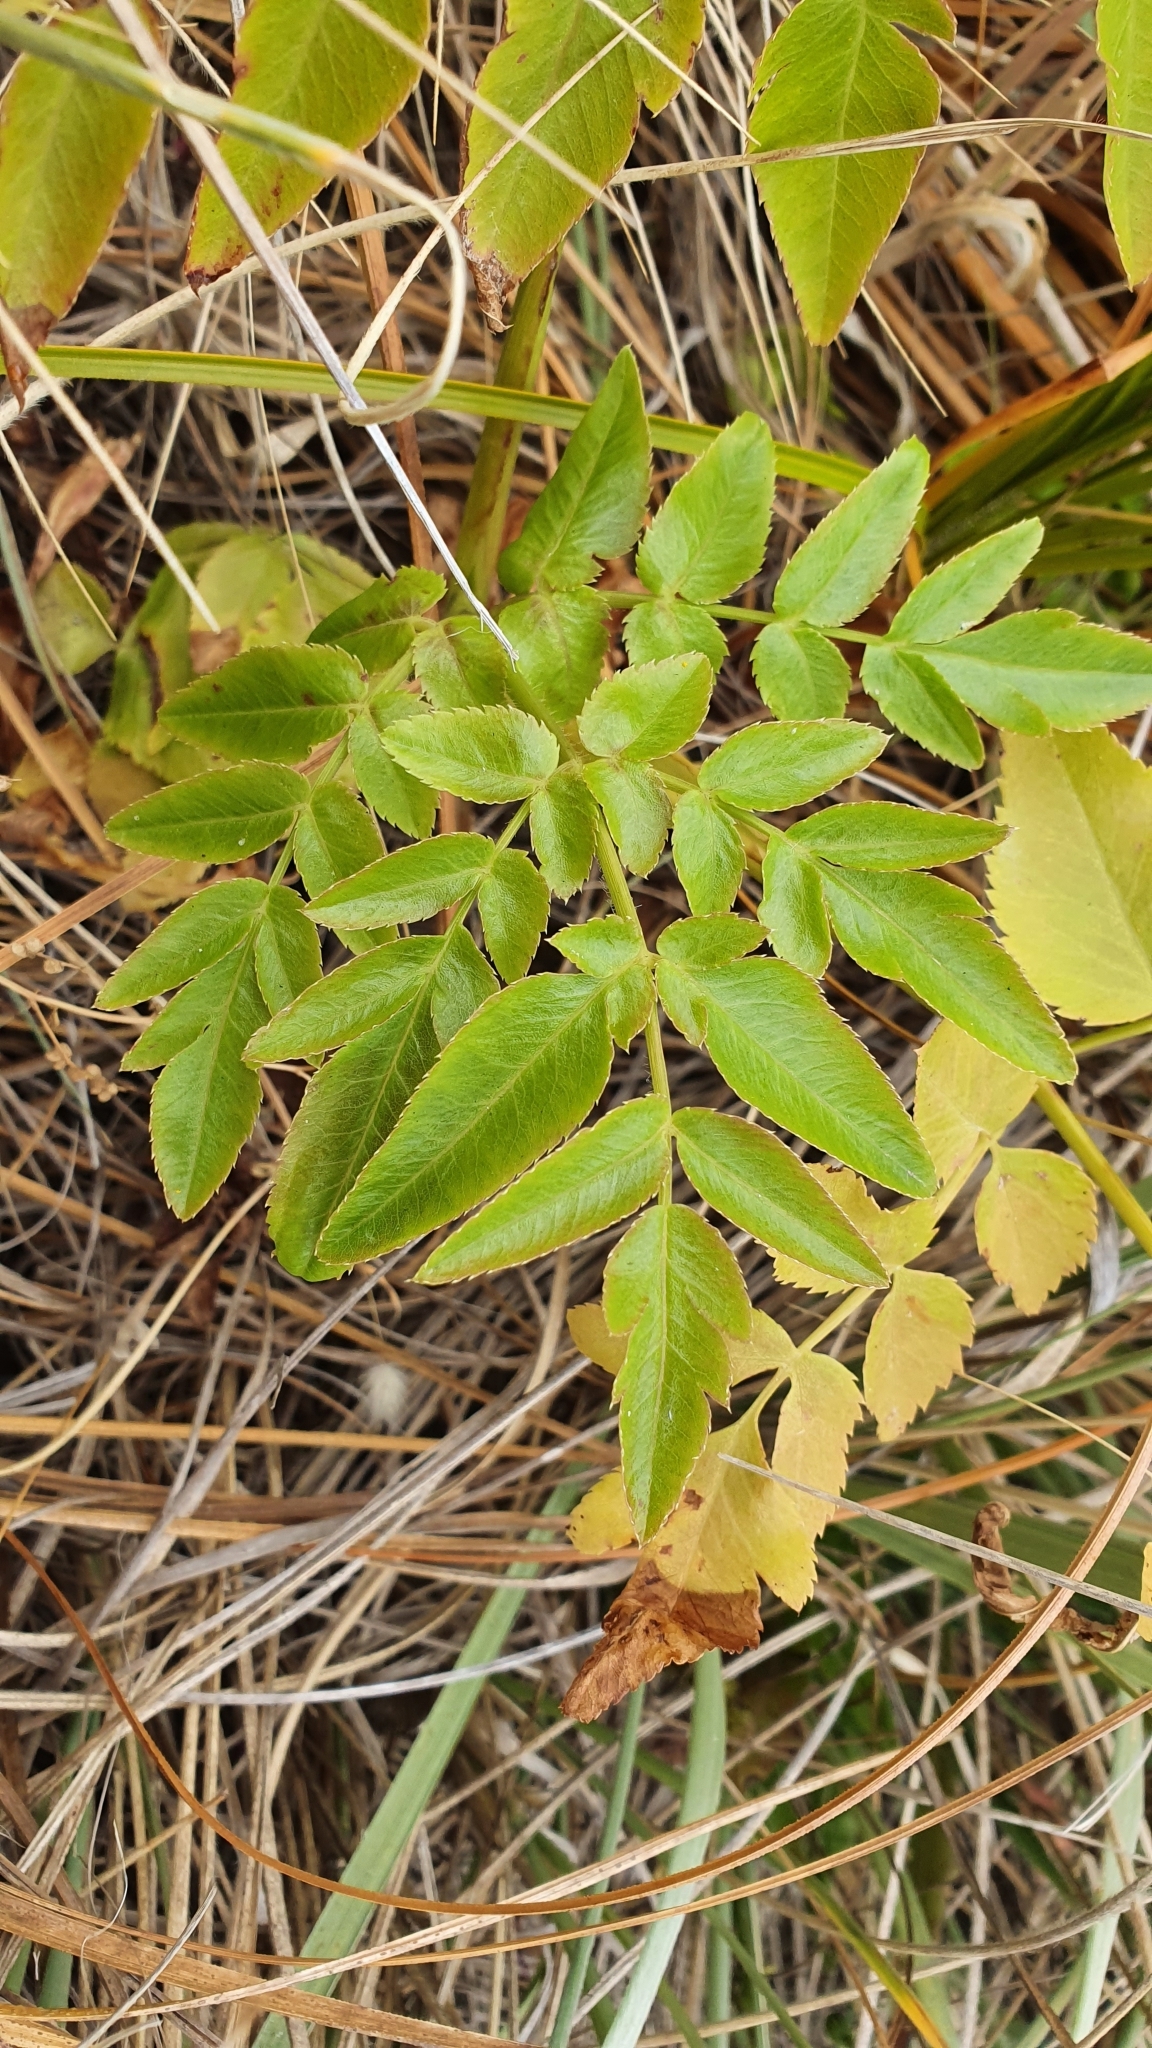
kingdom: Plantae
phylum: Tracheophyta
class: Magnoliopsida
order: Apiales
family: Apiaceae
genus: Daucus
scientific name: Daucus decipiens
